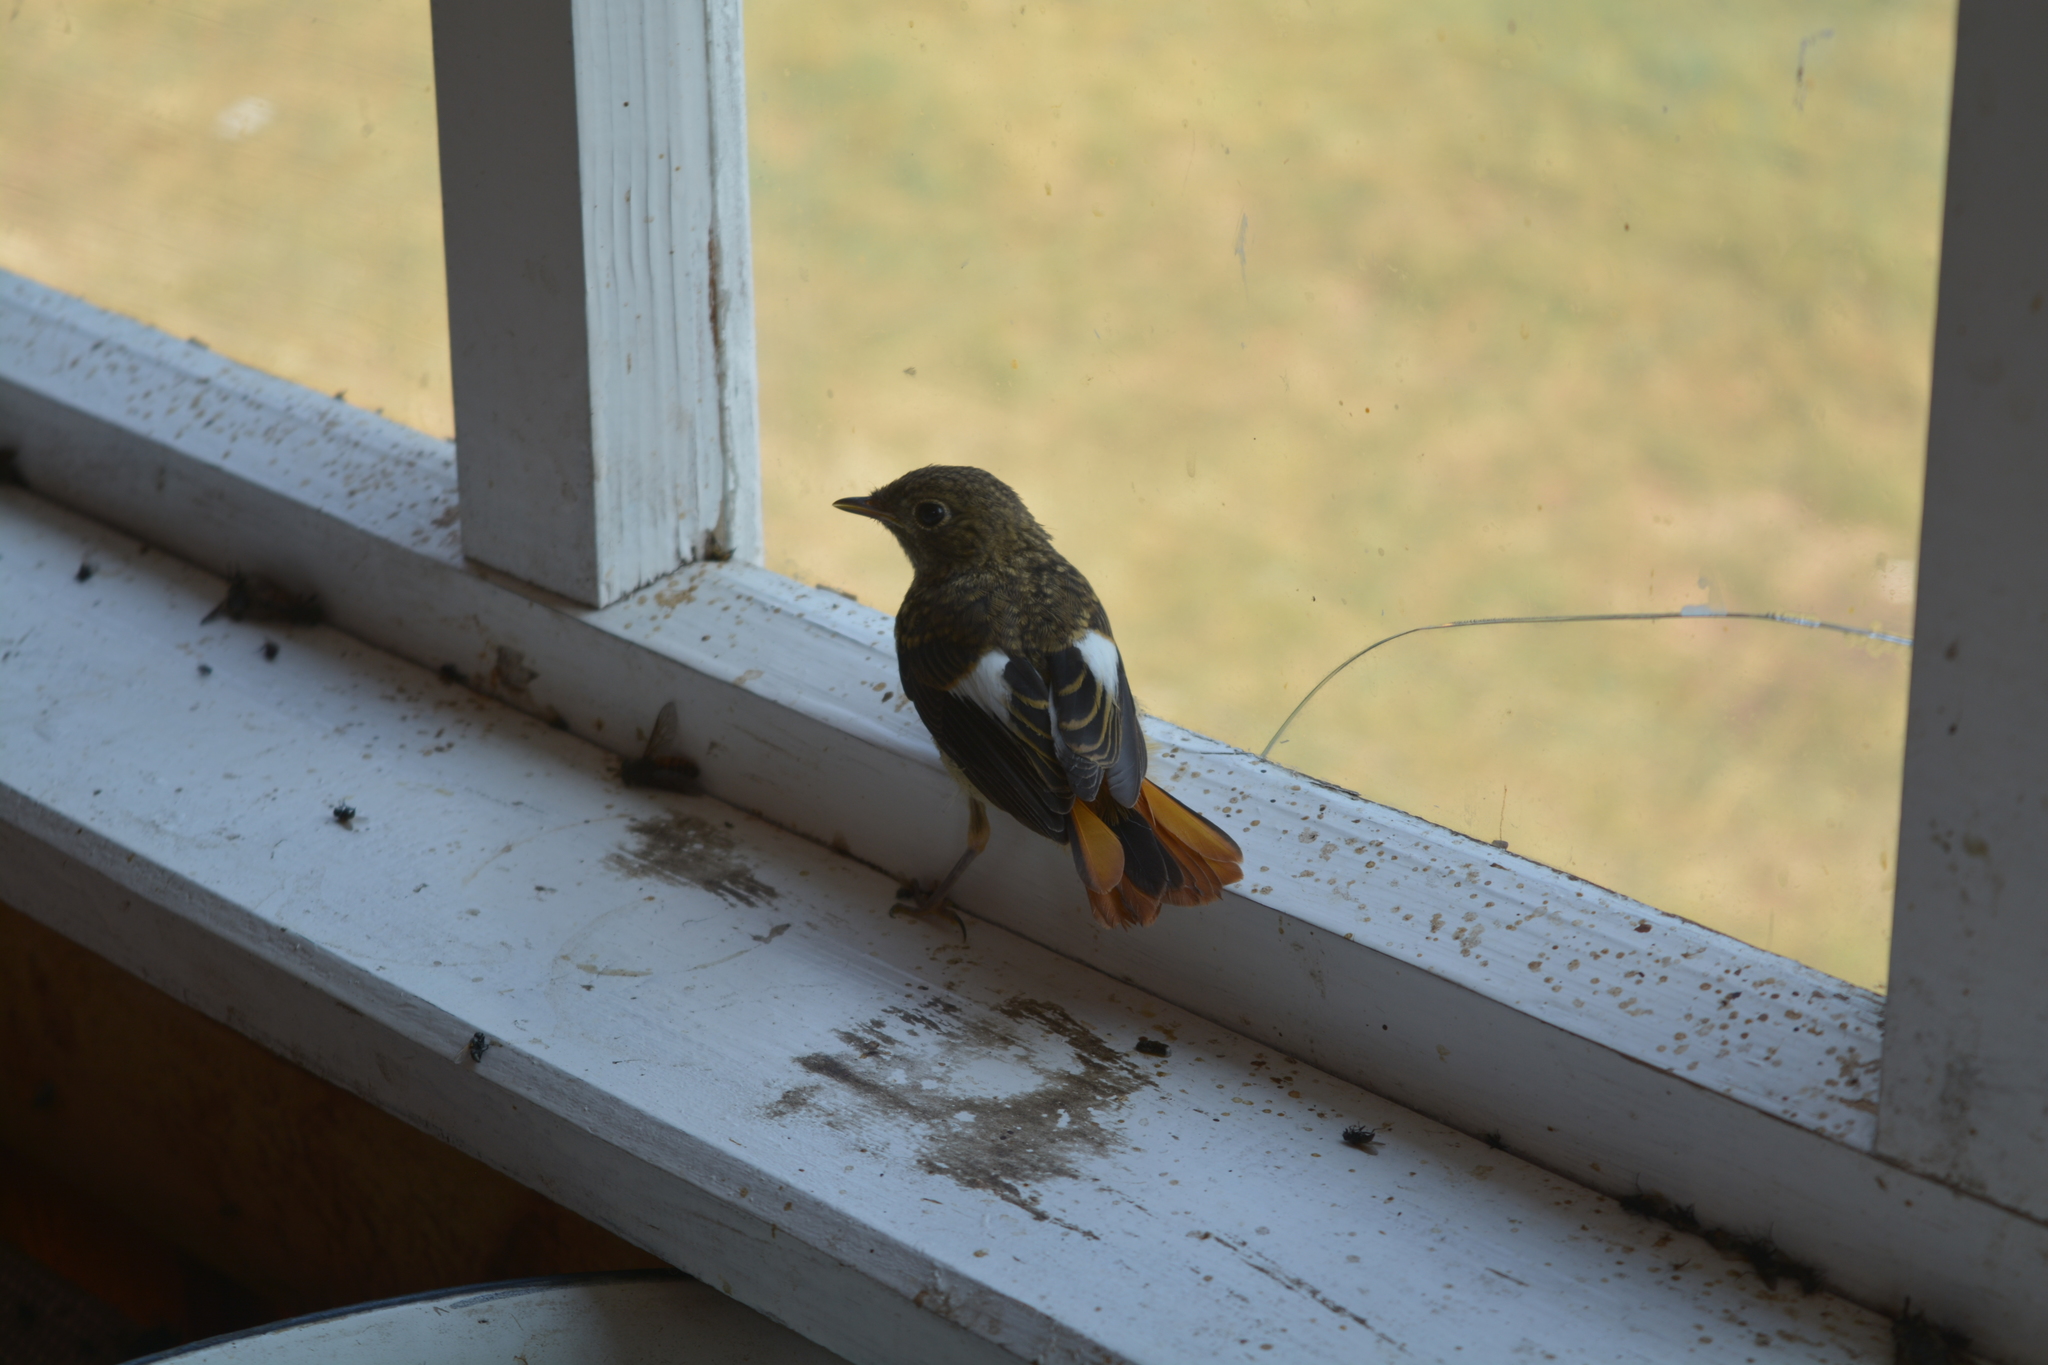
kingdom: Animalia
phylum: Chordata
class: Aves
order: Passeriformes
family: Muscicapidae
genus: Phoenicurus
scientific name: Phoenicurus auroreus
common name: Daurian redstart
